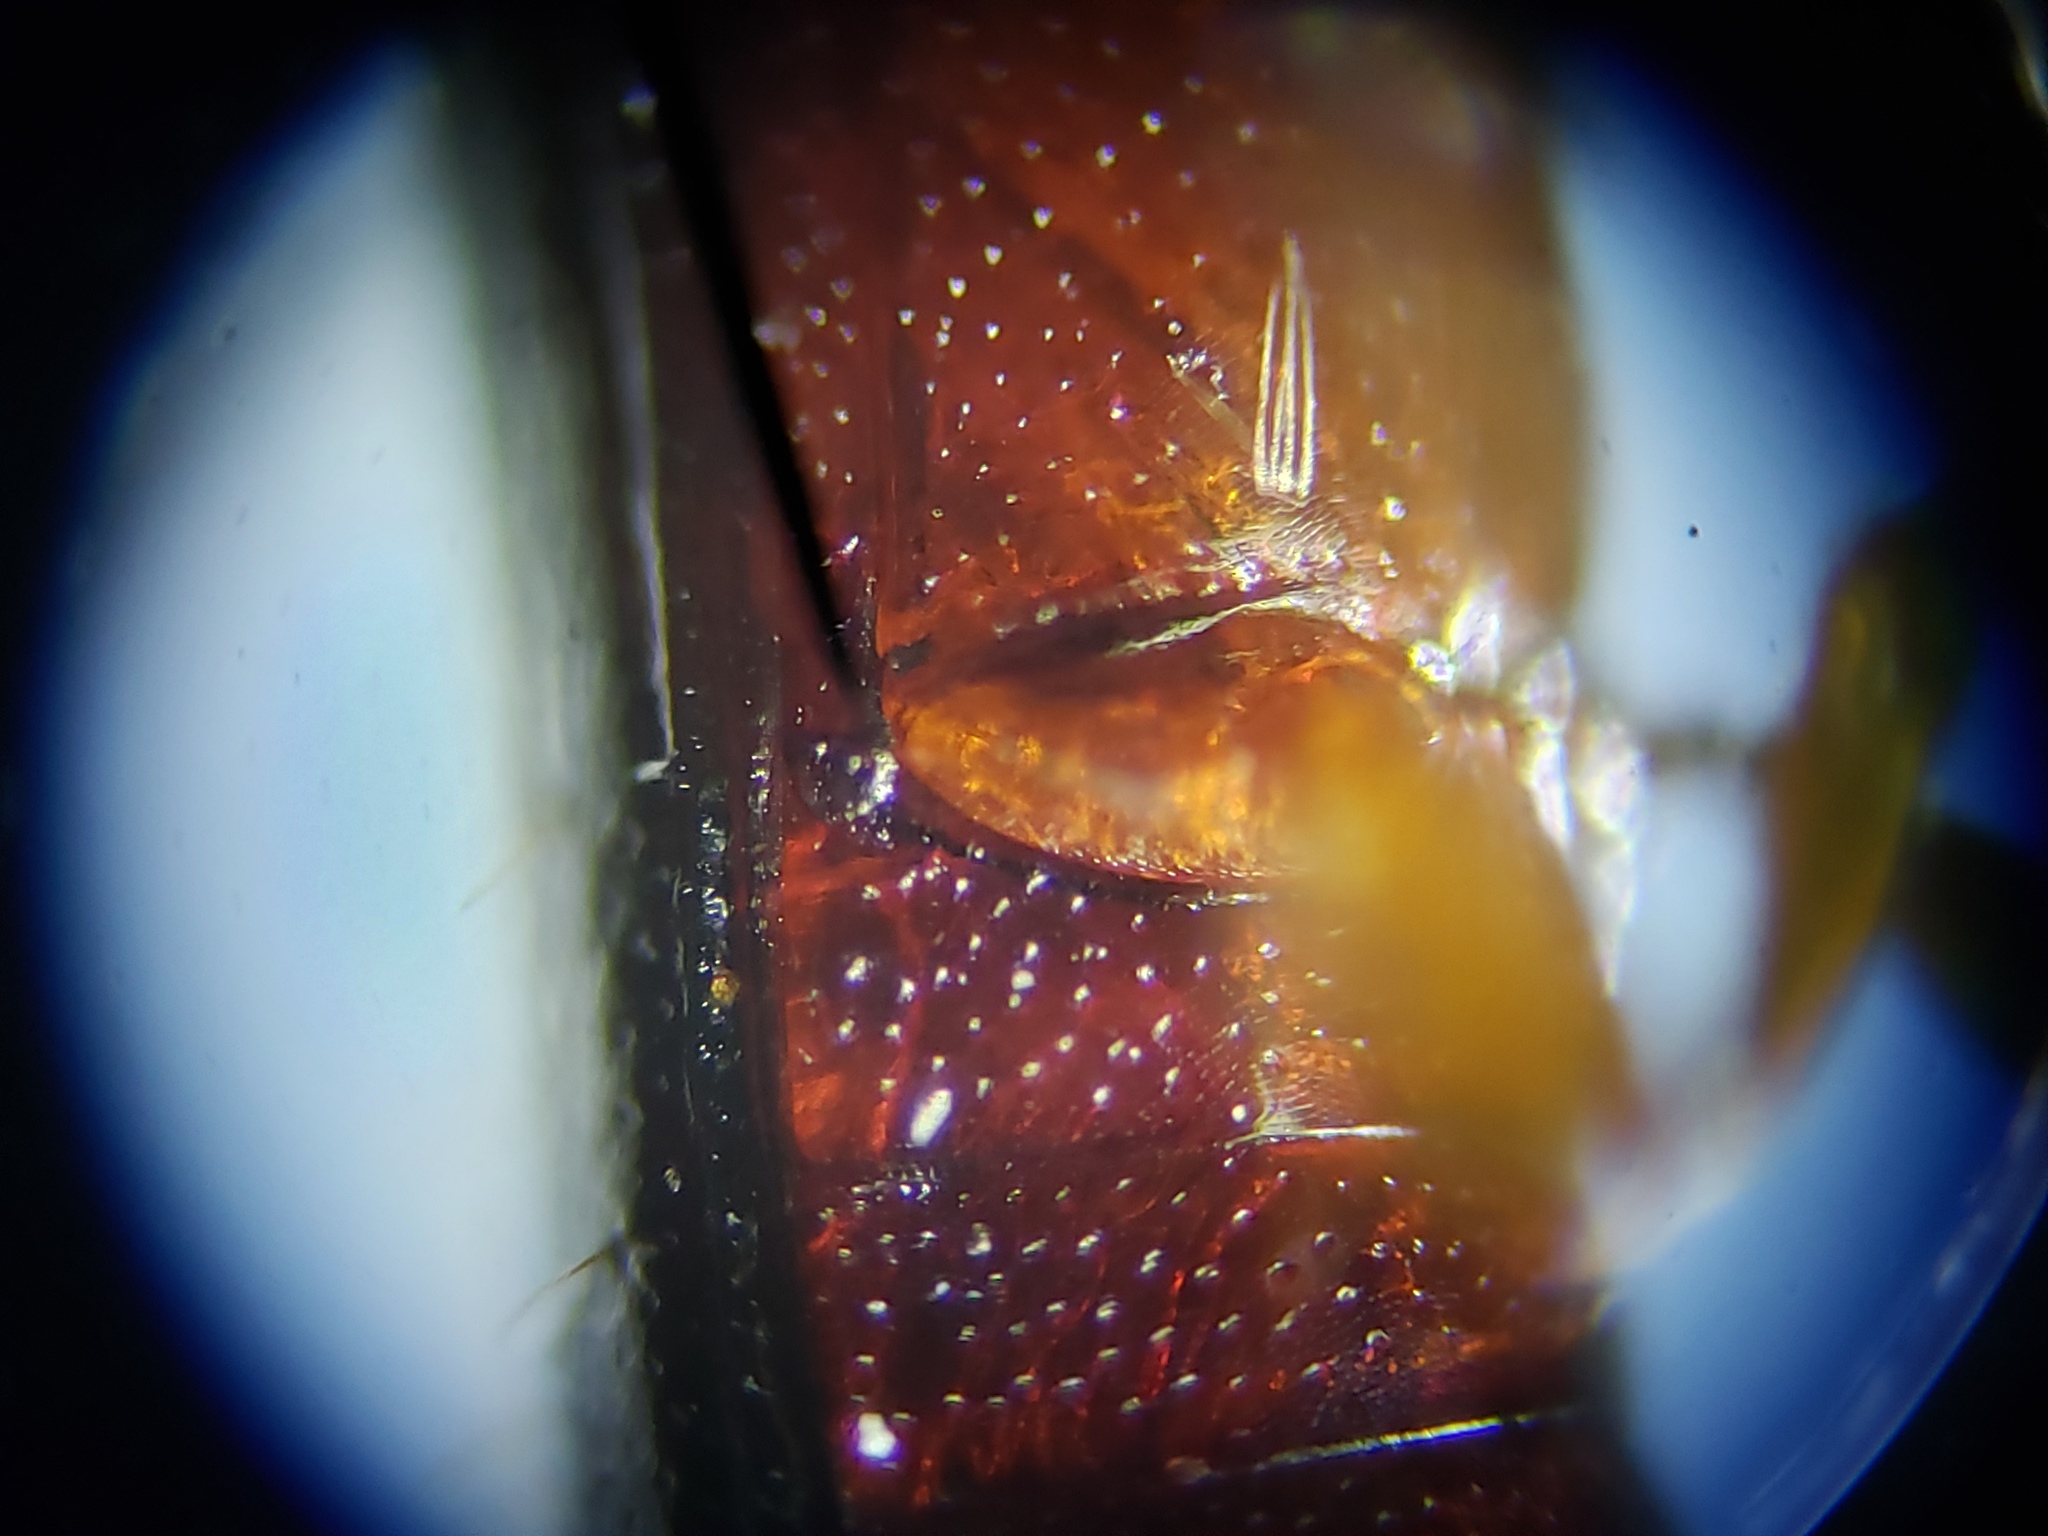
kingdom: Animalia
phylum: Arthropoda
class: Insecta
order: Coleoptera
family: Tenebrionidae
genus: Corticeus
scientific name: Corticeus thoracicus
